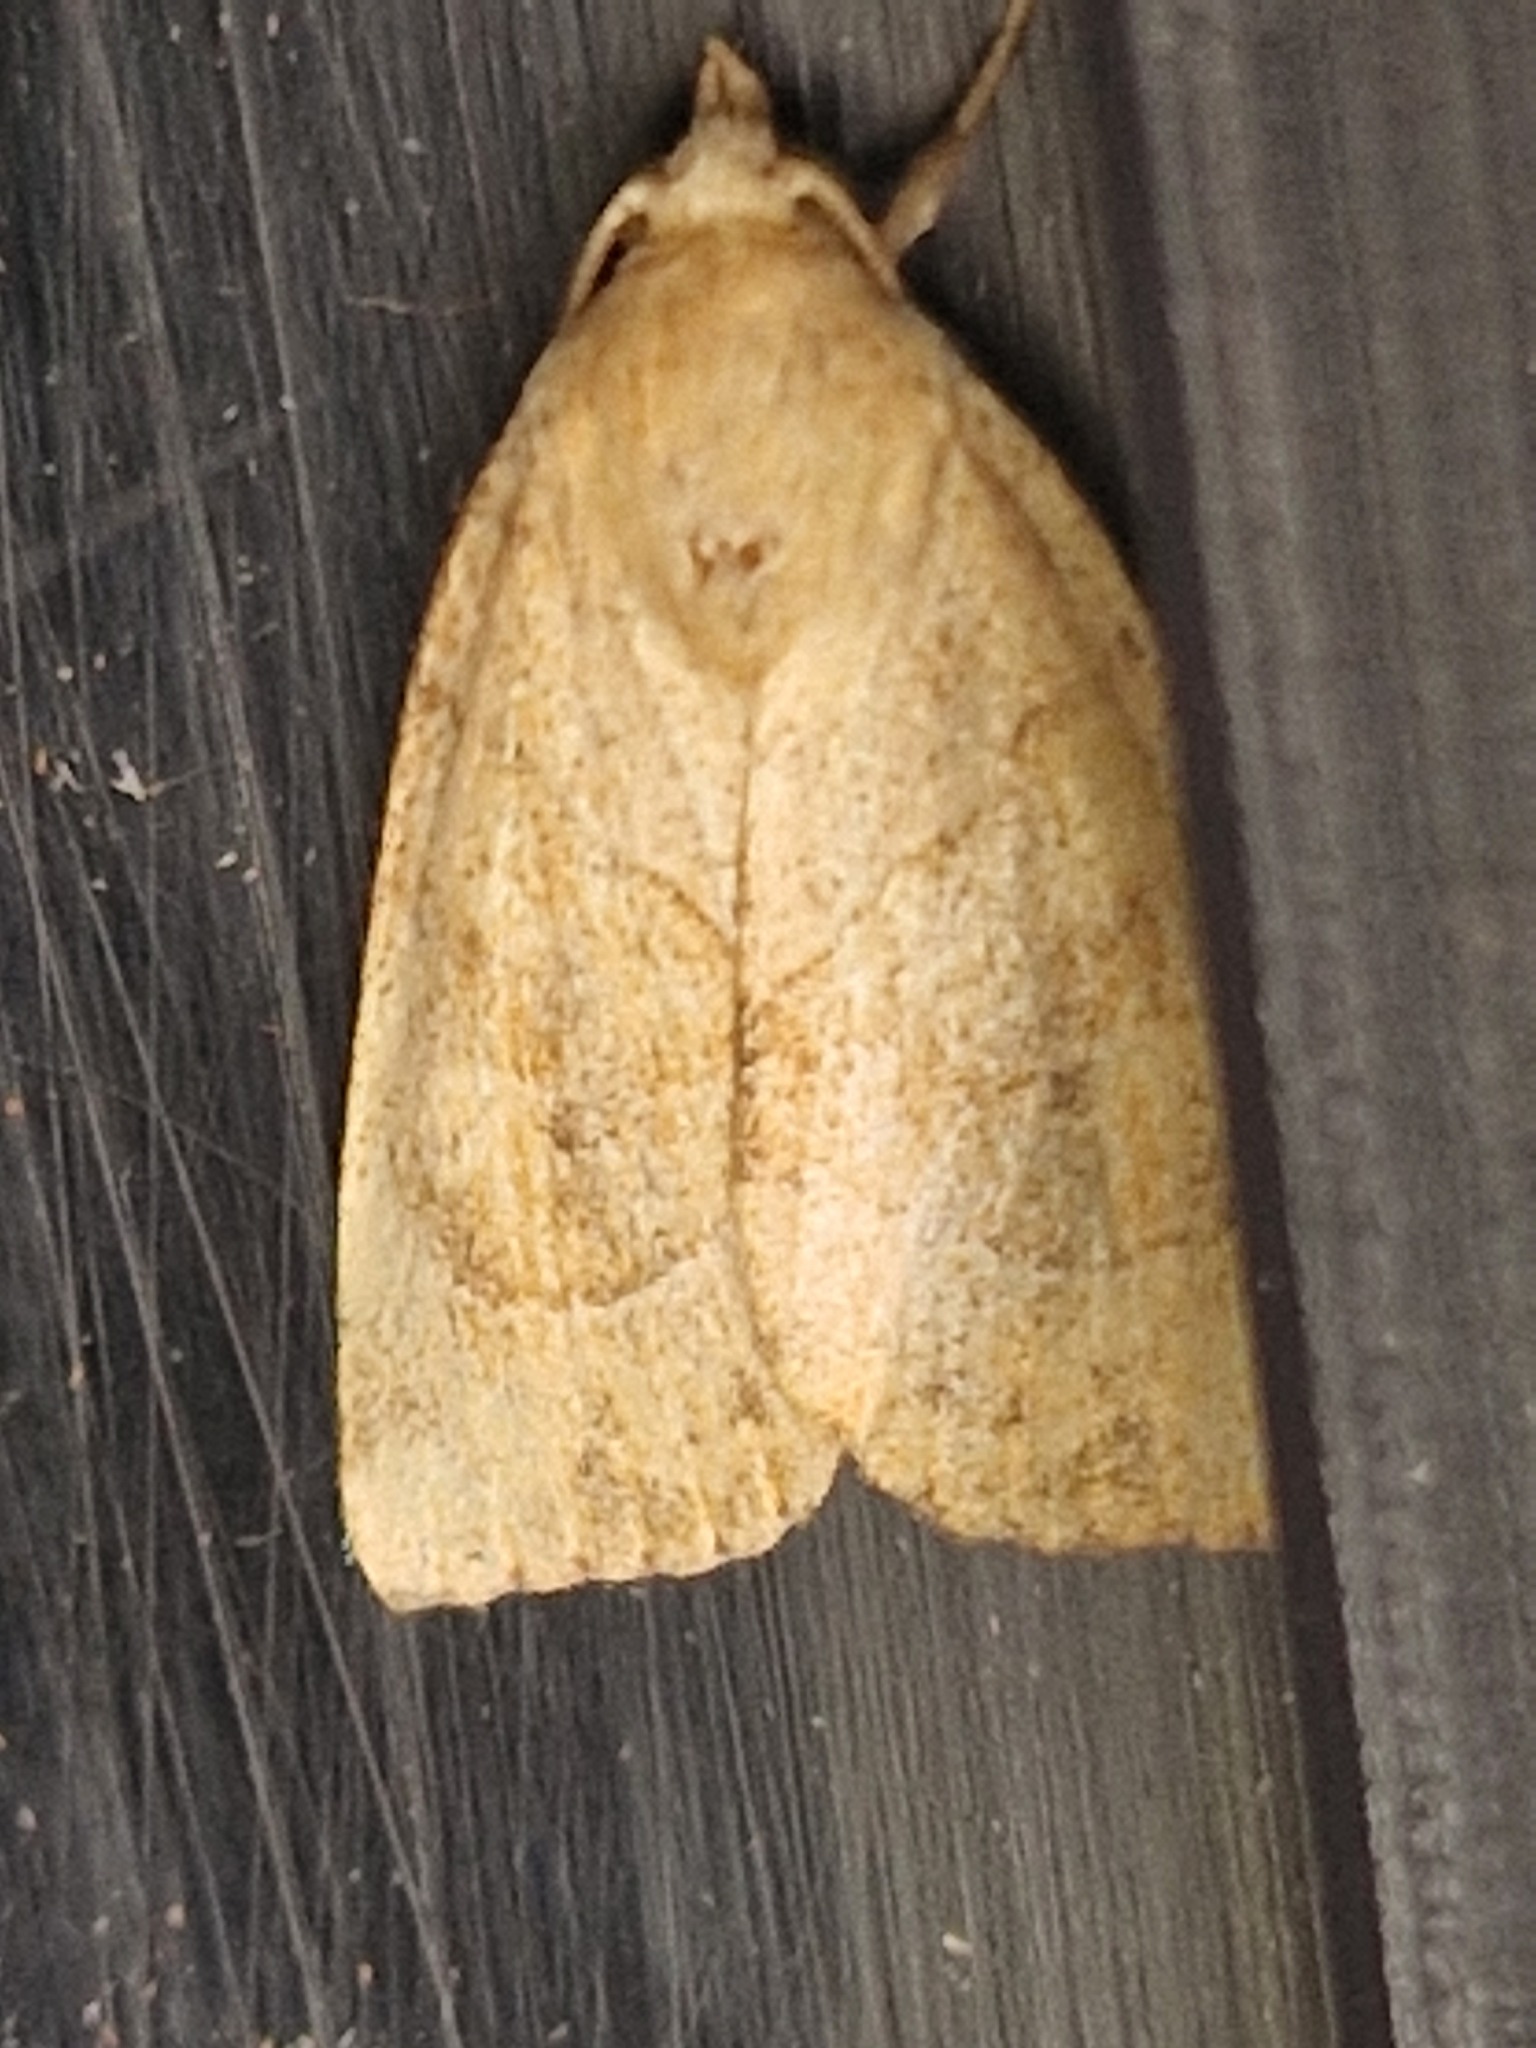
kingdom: Animalia
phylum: Arthropoda
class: Insecta
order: Lepidoptera
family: Noctuidae
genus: Cosmia
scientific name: Cosmia trapezina
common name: Dun-bar
